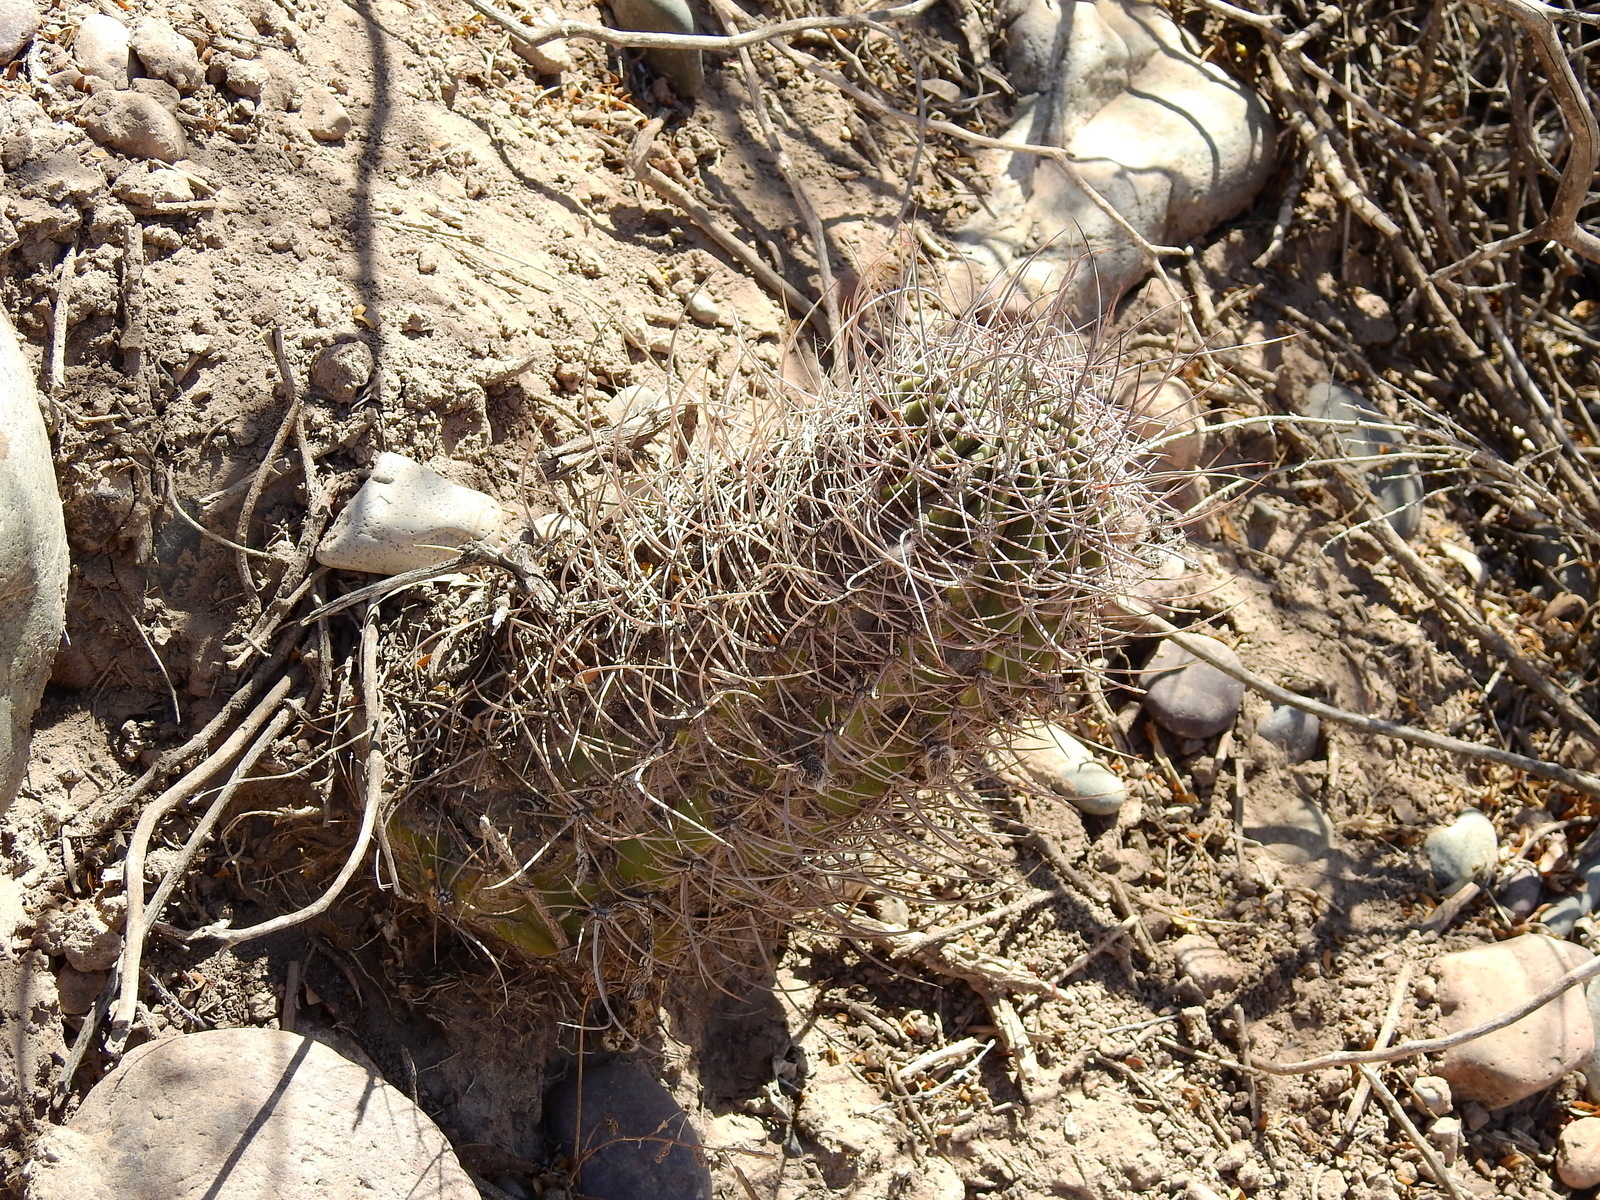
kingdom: Plantae
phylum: Tracheophyta
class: Magnoliopsida
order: Caryophyllales
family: Cactaceae
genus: Acanthocalycium
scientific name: Acanthocalycium leucanthum
